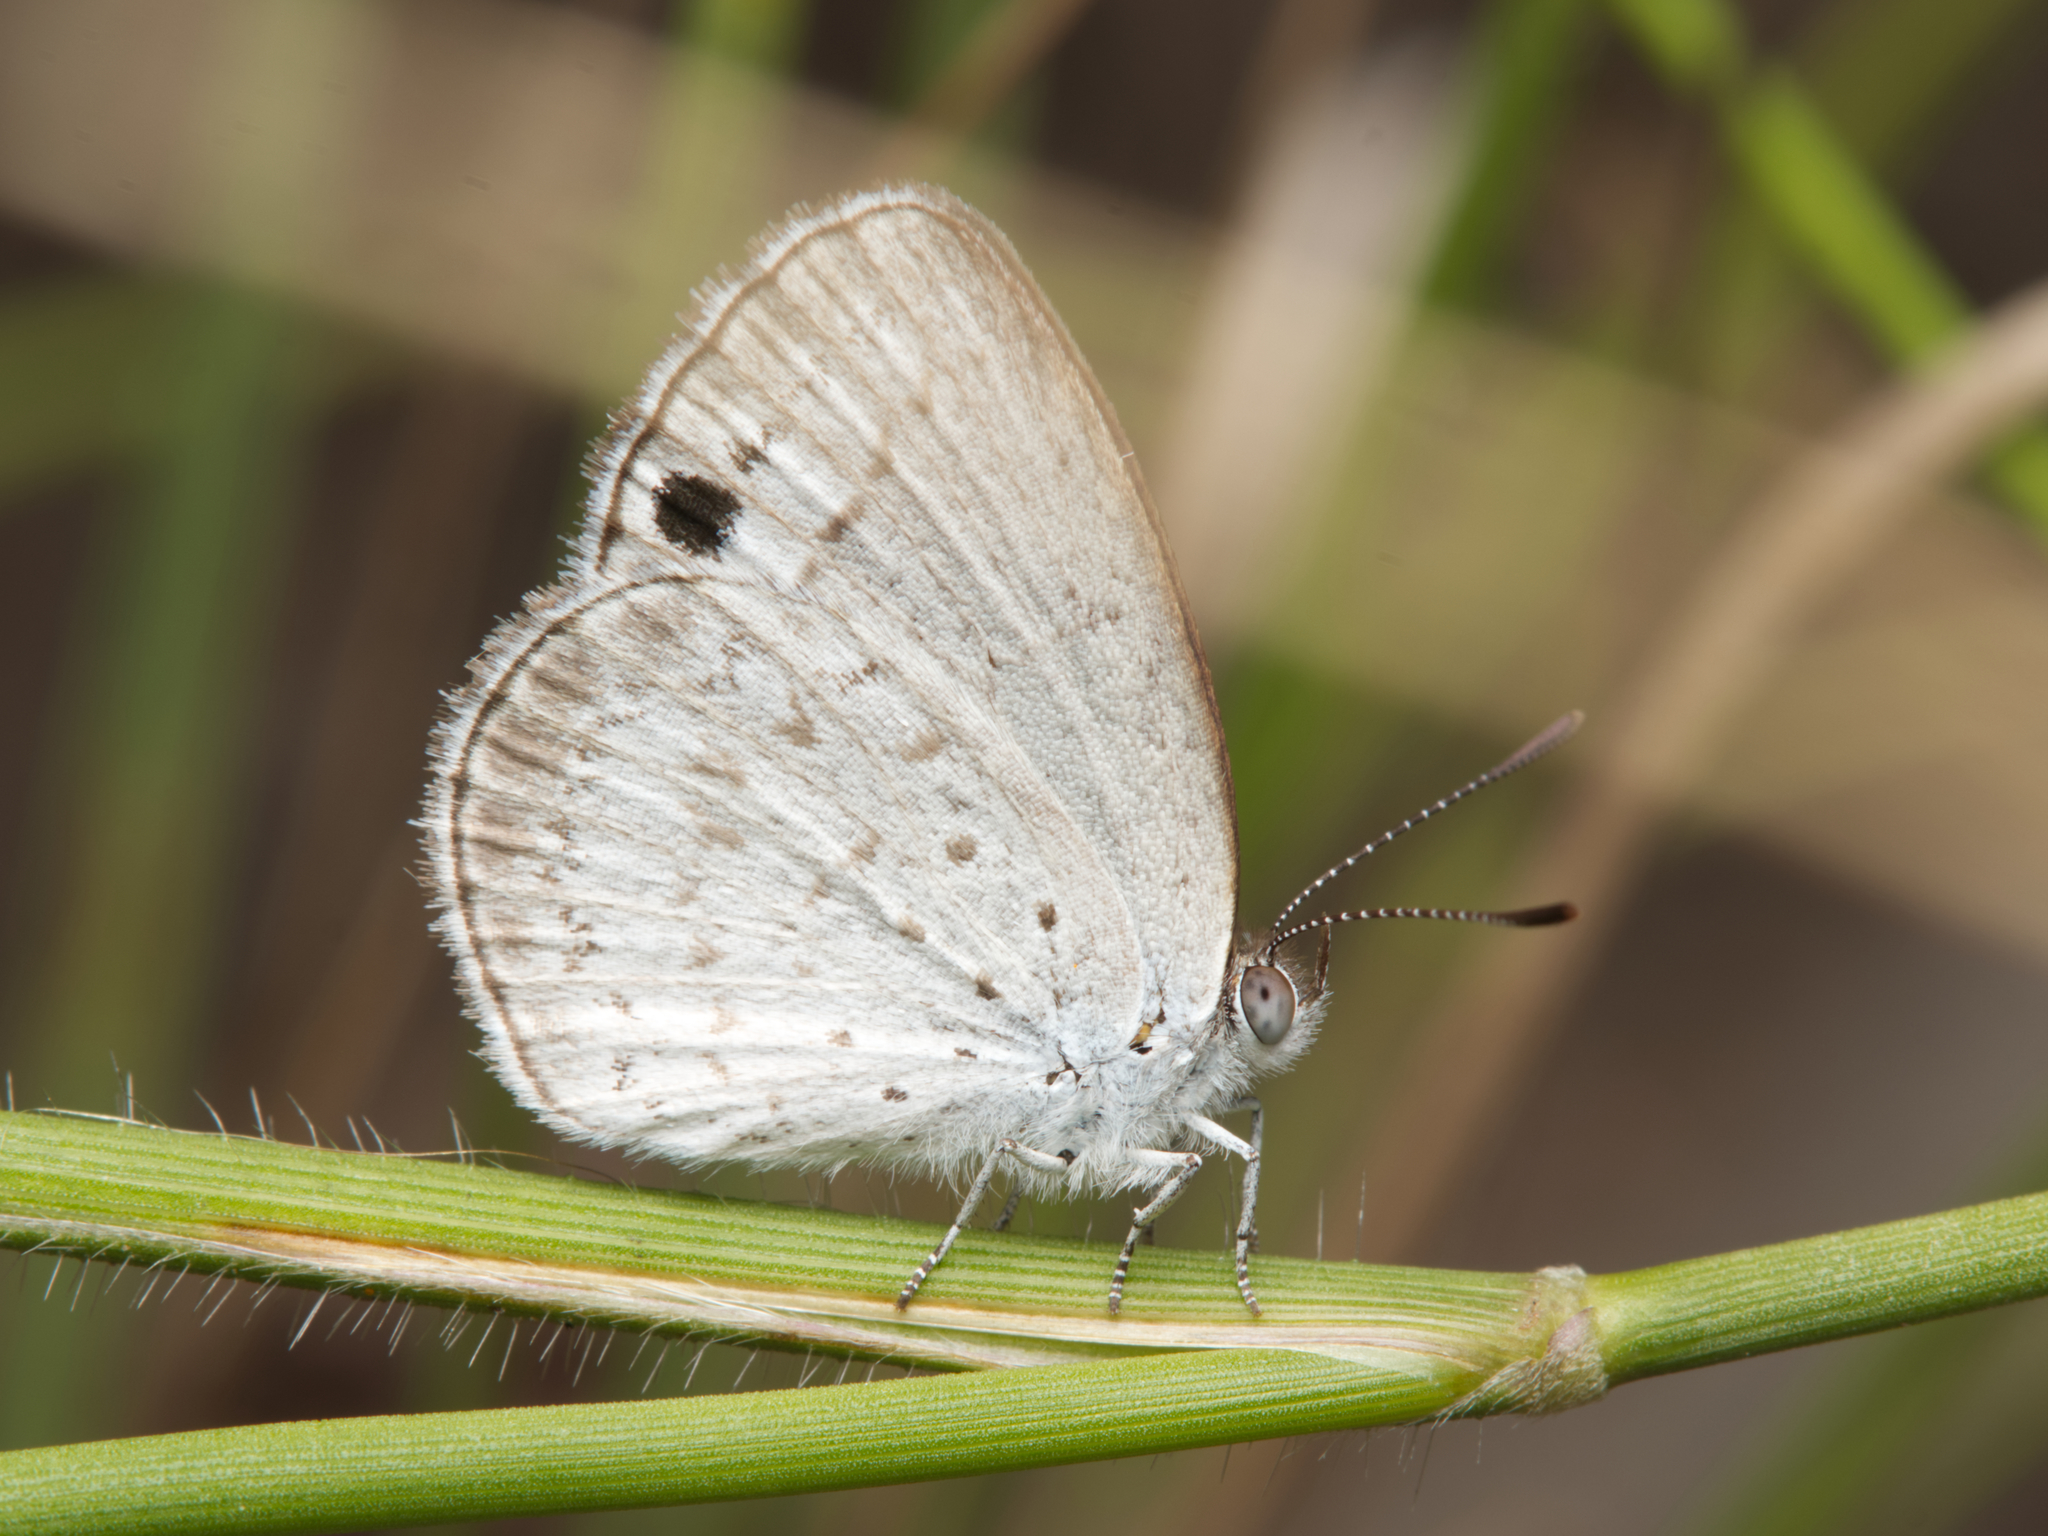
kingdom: Animalia
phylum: Arthropoda
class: Insecta
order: Lepidoptera
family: Lycaenidae
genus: Candalides
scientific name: Candalides
